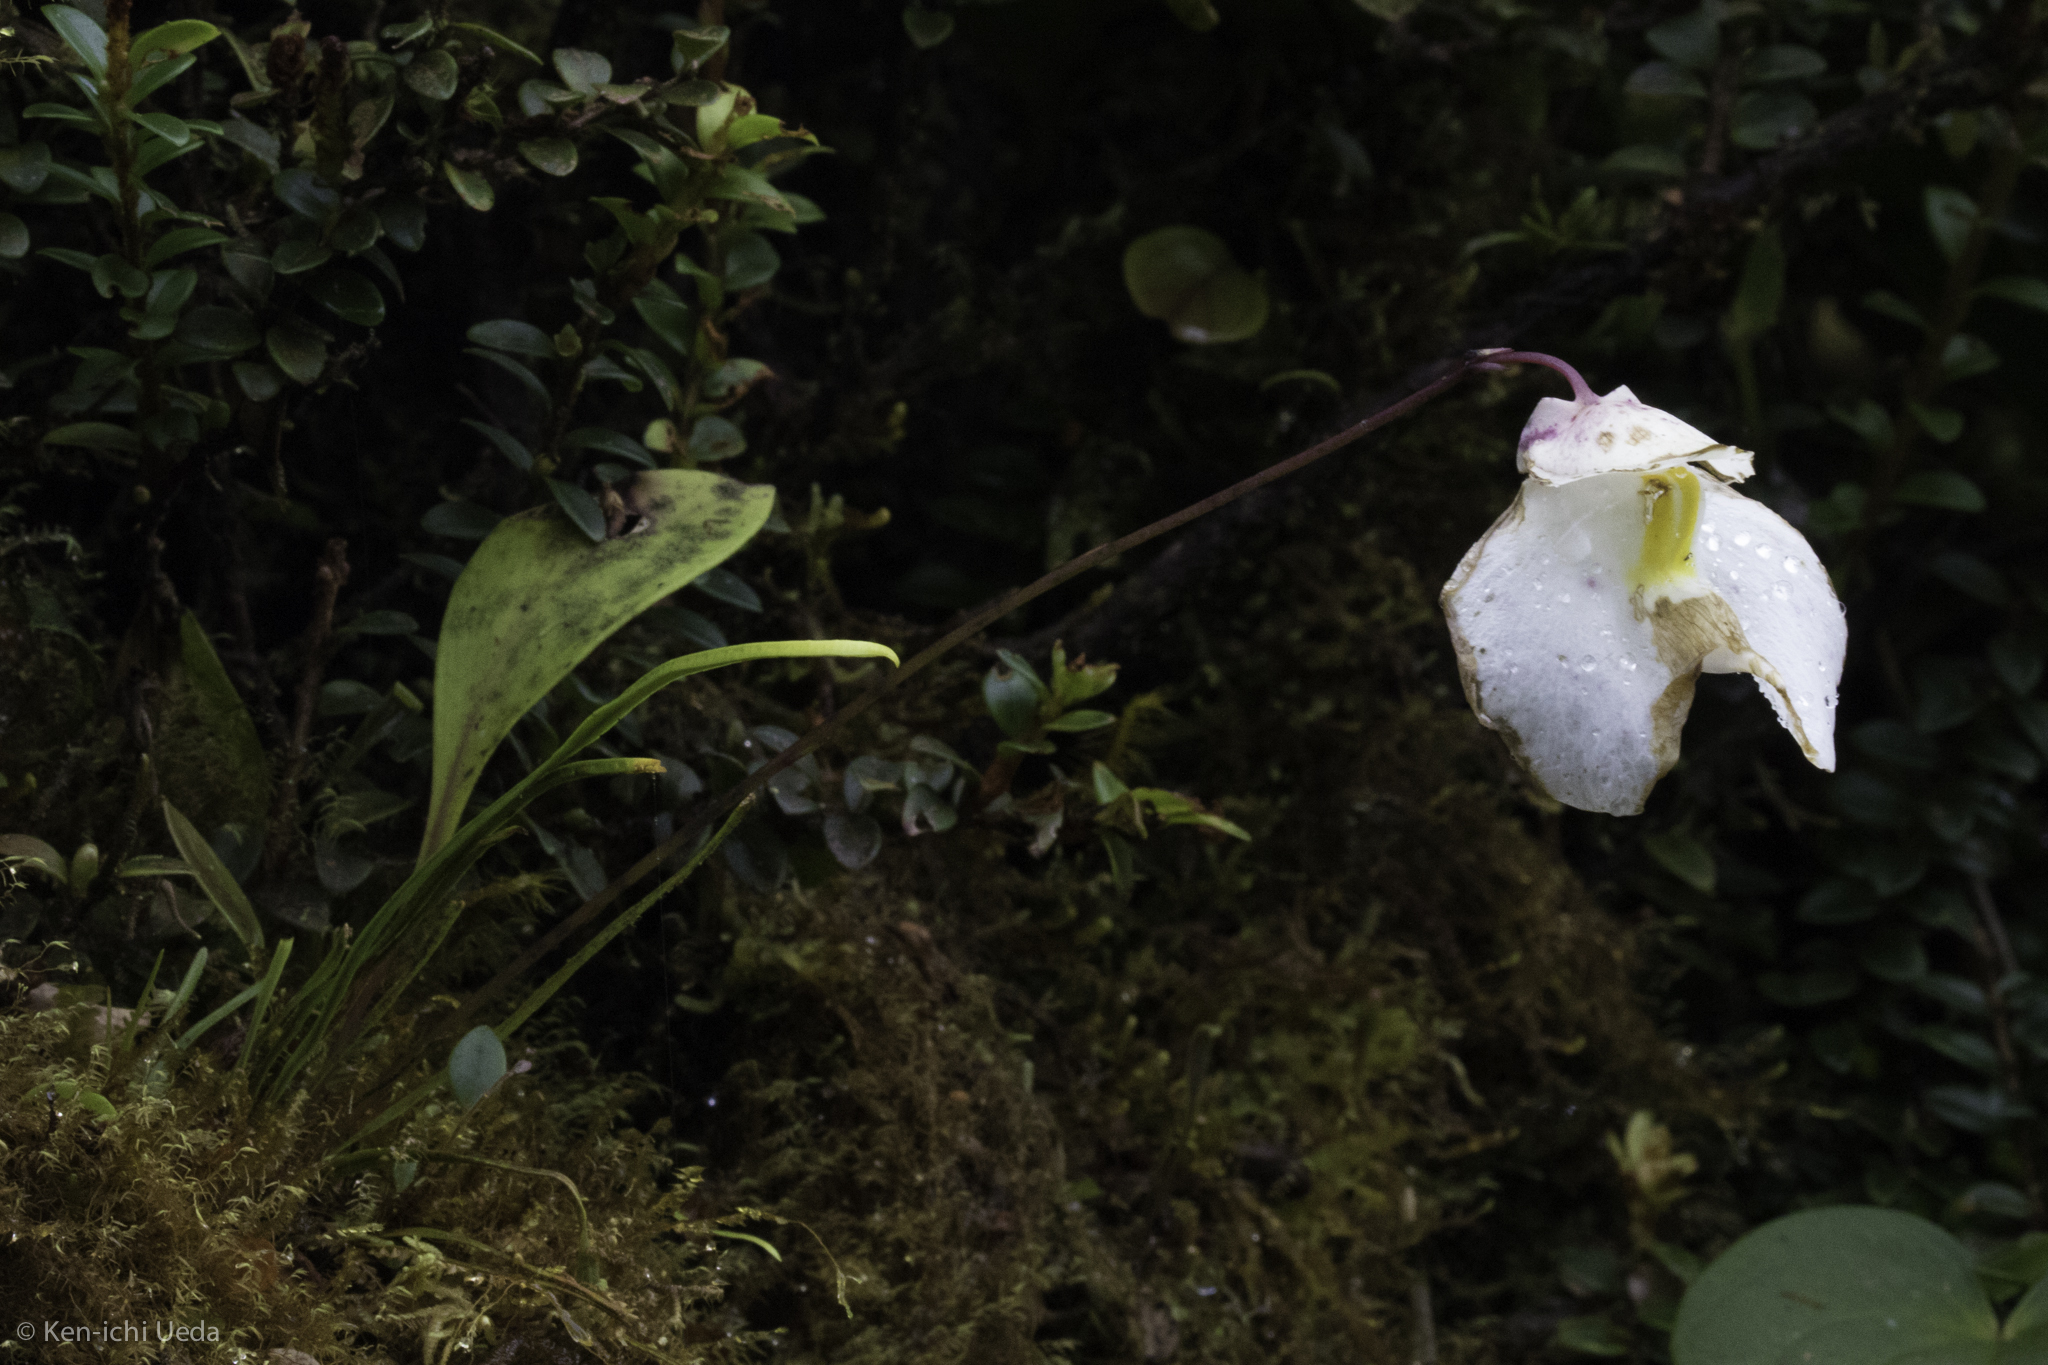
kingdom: Plantae
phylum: Tracheophyta
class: Magnoliopsida
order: Lamiales
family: Lentibulariaceae
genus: Utricularia
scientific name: Utricularia praetermissa
